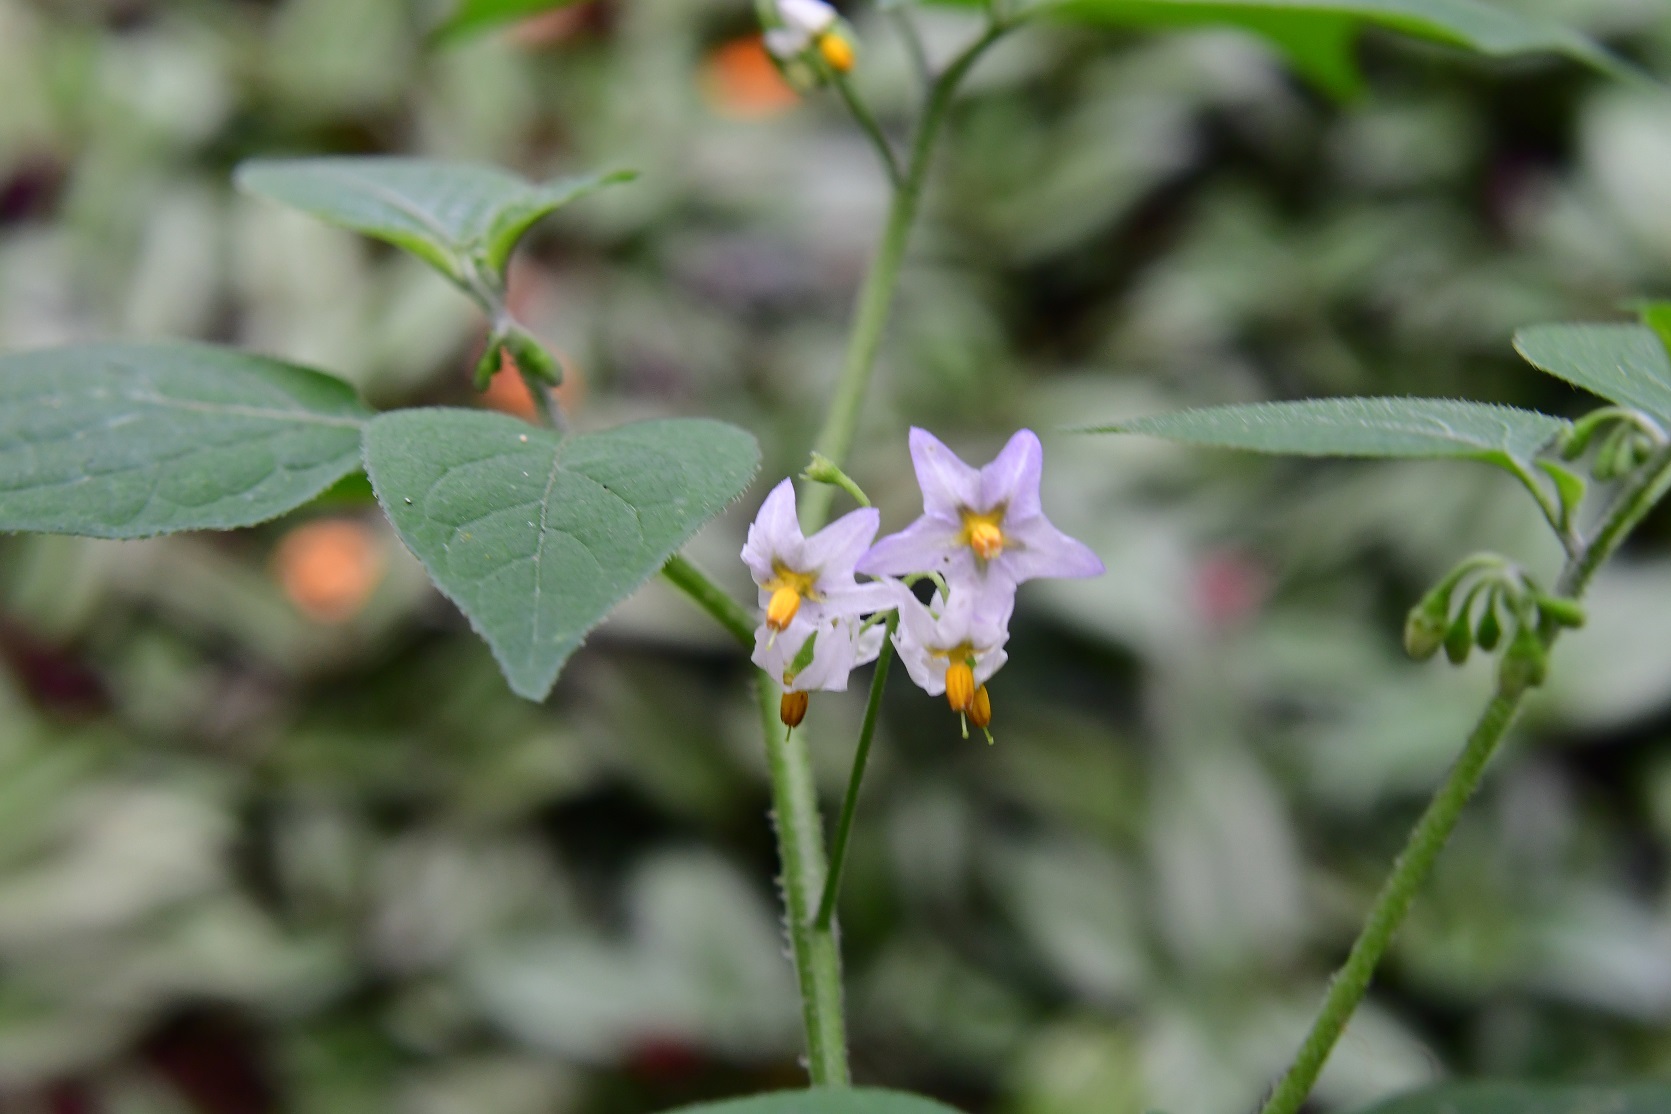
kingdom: Plantae
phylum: Tracheophyta
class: Magnoliopsida
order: Solanales
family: Solanaceae
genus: Solanum
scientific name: Solanum nigrescens
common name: Divine nightshade
